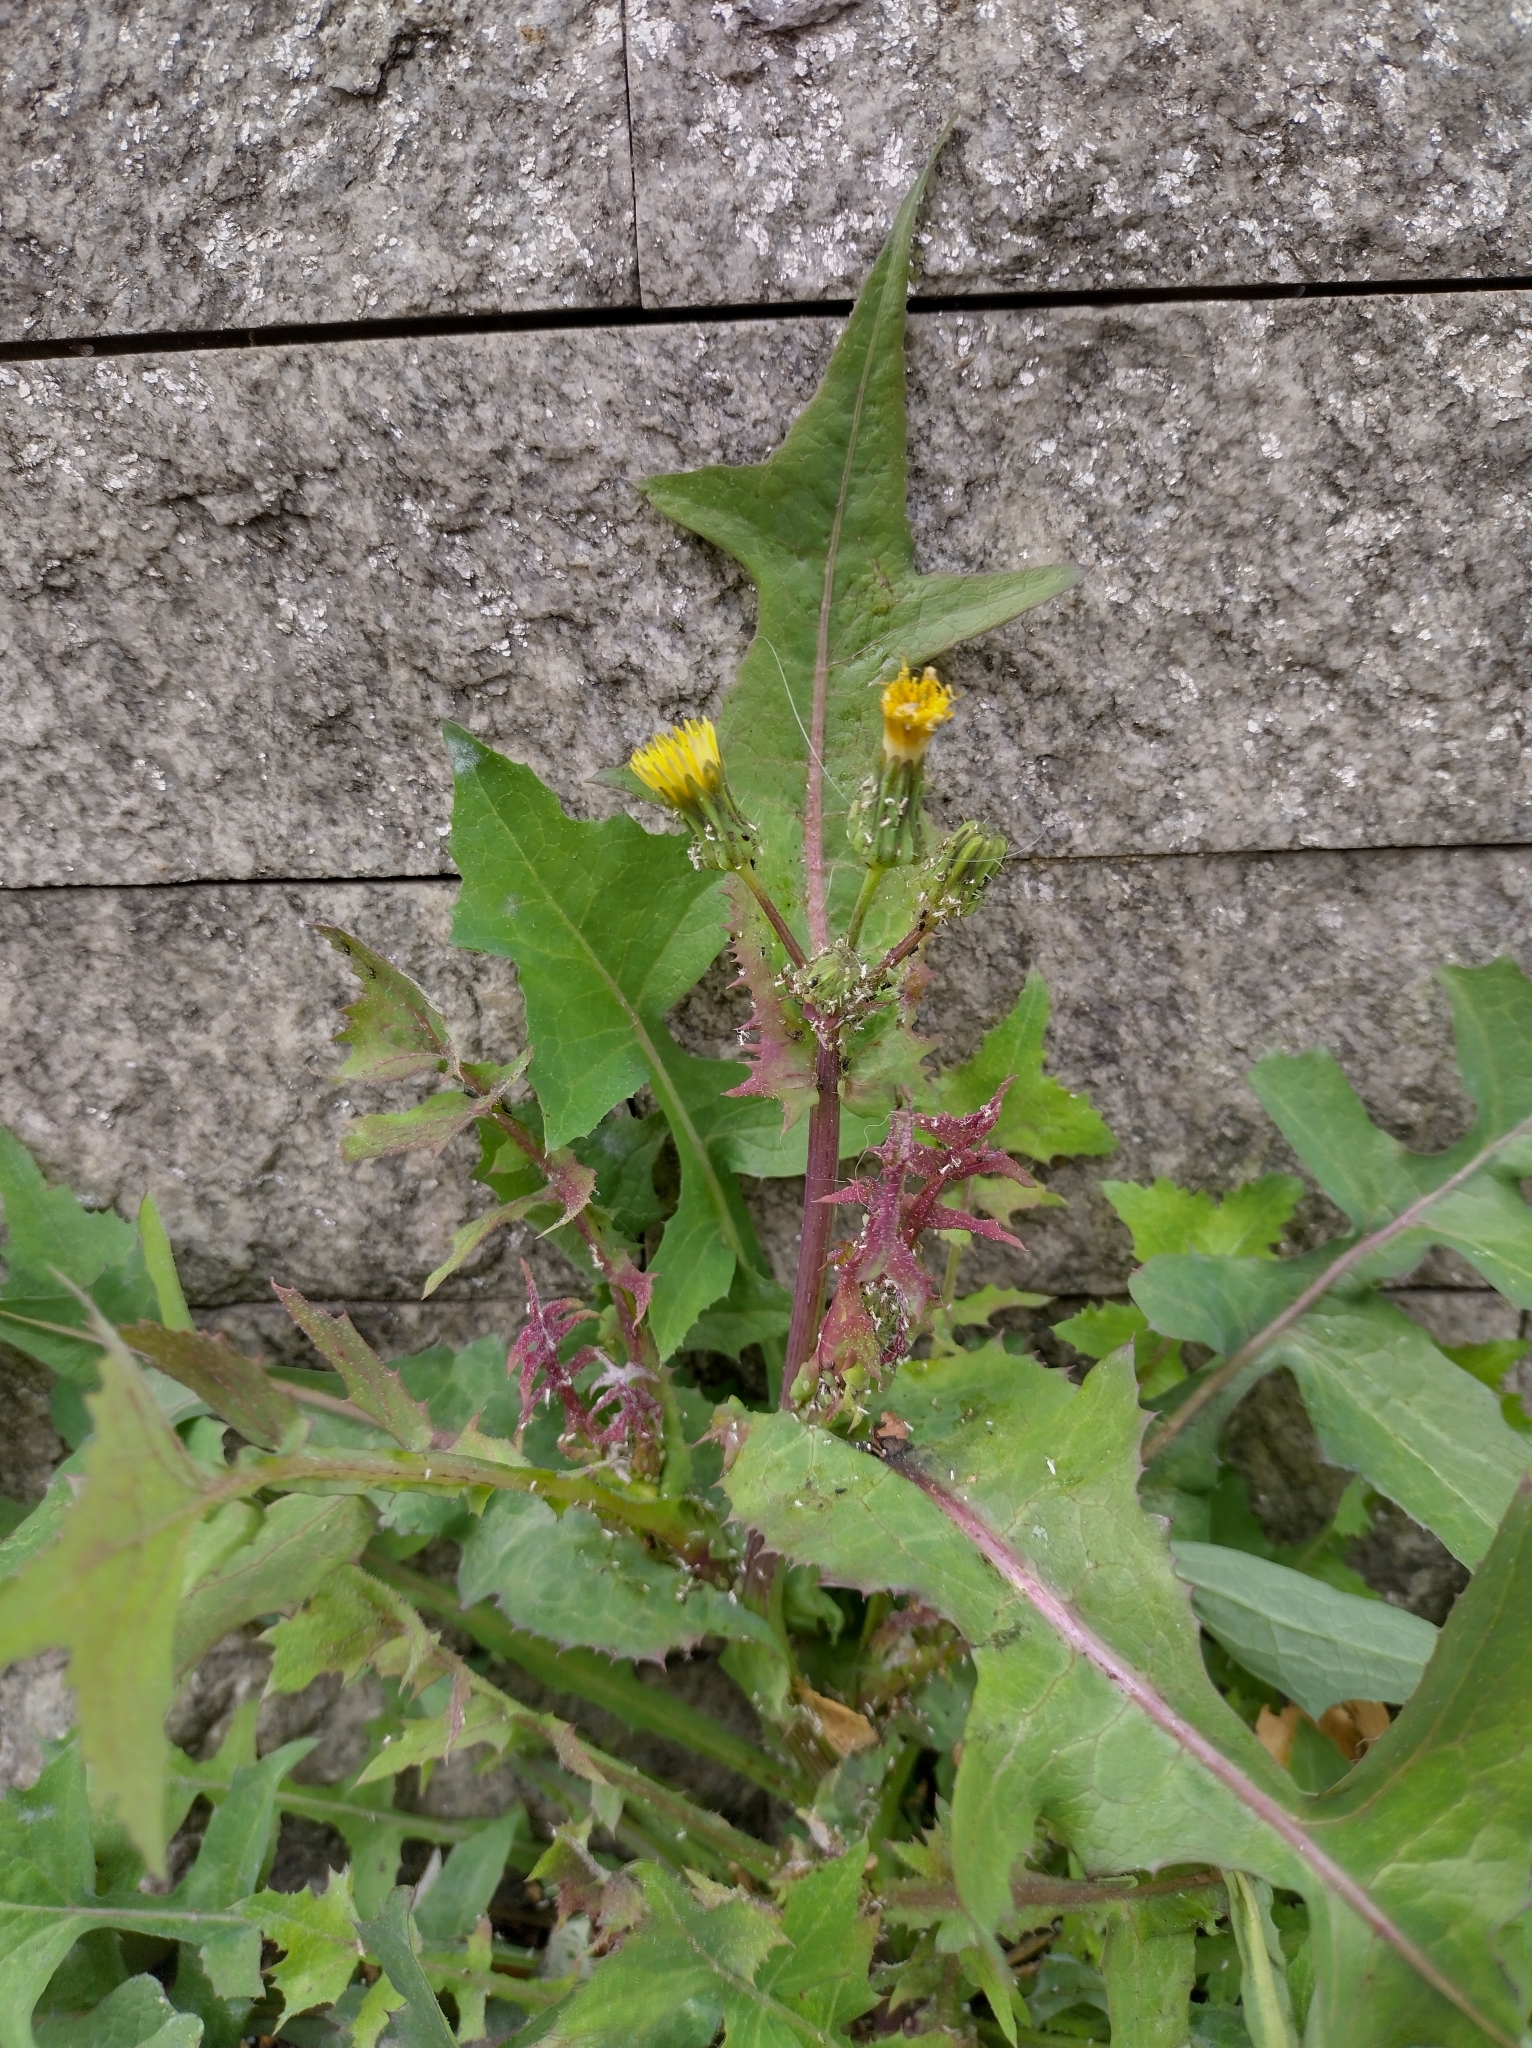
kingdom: Plantae
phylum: Tracheophyta
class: Magnoliopsida
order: Asterales
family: Asteraceae
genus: Sonchus
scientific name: Sonchus oleraceus
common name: Common sowthistle
